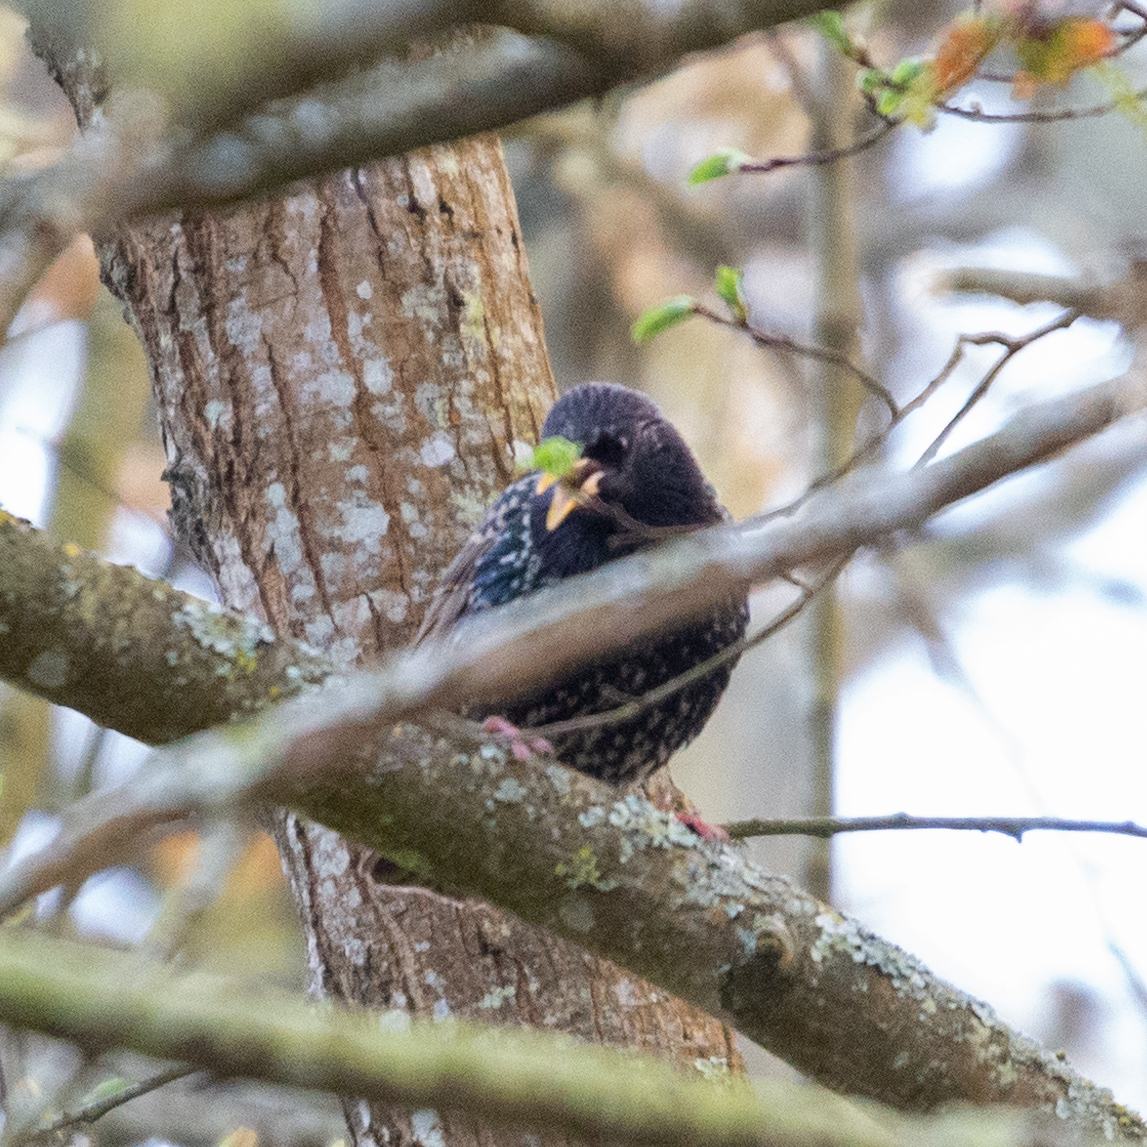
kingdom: Animalia
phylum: Chordata
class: Aves
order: Passeriformes
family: Sturnidae
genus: Sturnus
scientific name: Sturnus vulgaris
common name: Common starling
